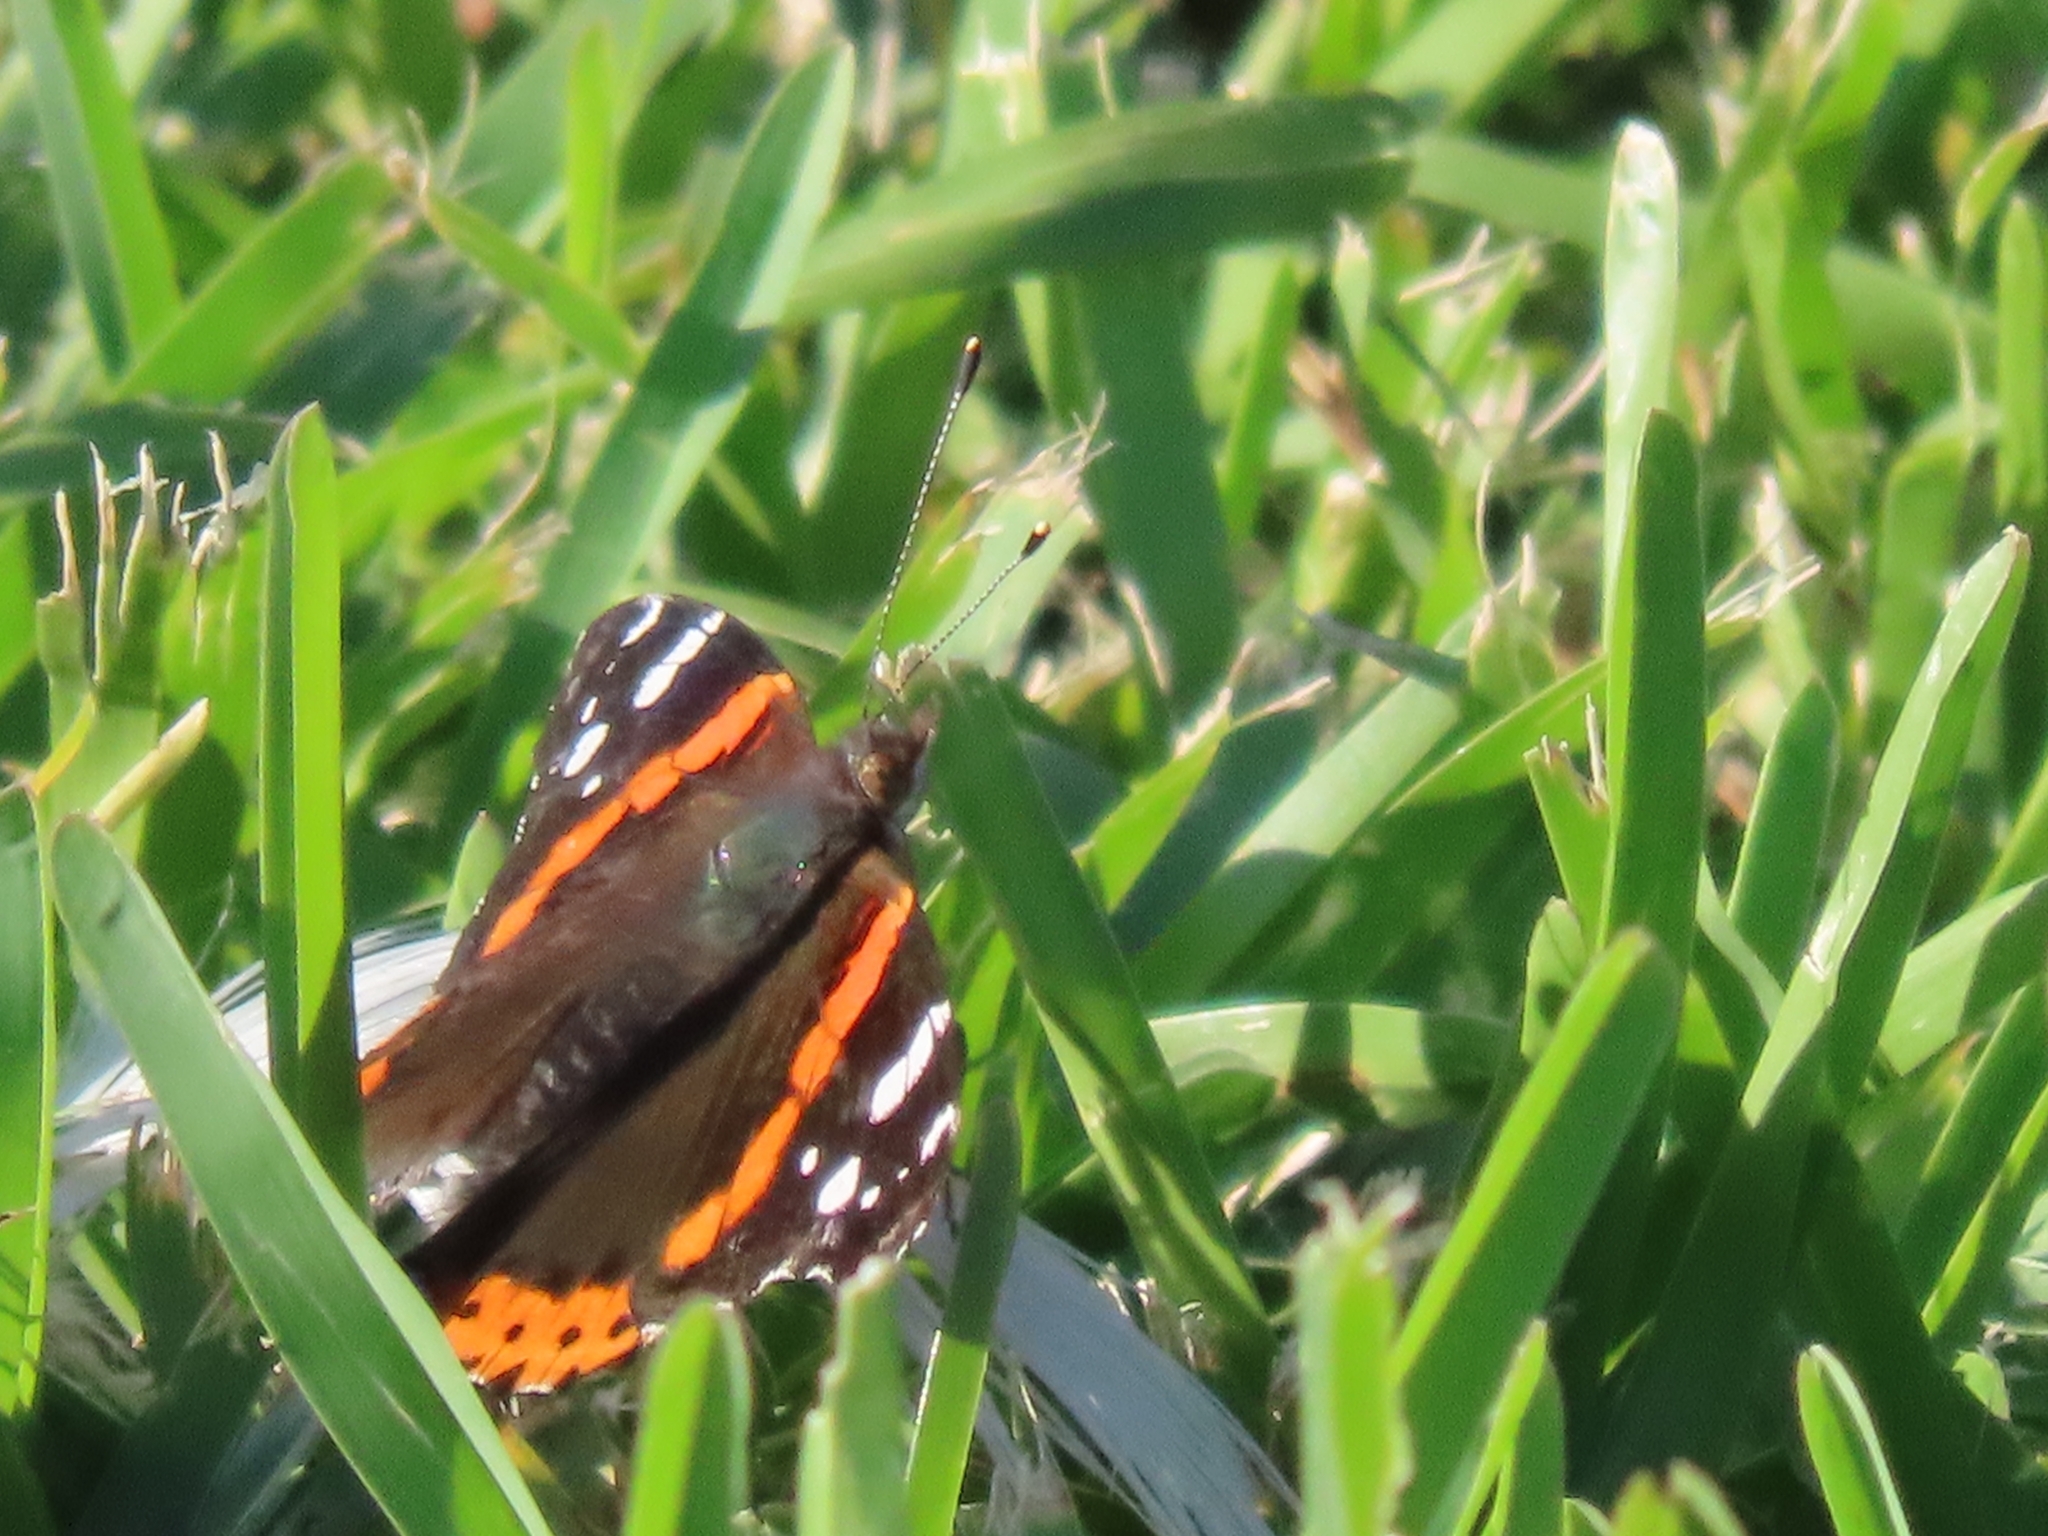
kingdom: Animalia
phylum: Arthropoda
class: Insecta
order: Lepidoptera
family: Nymphalidae
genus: Vanessa
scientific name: Vanessa atalanta
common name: Red admiral
